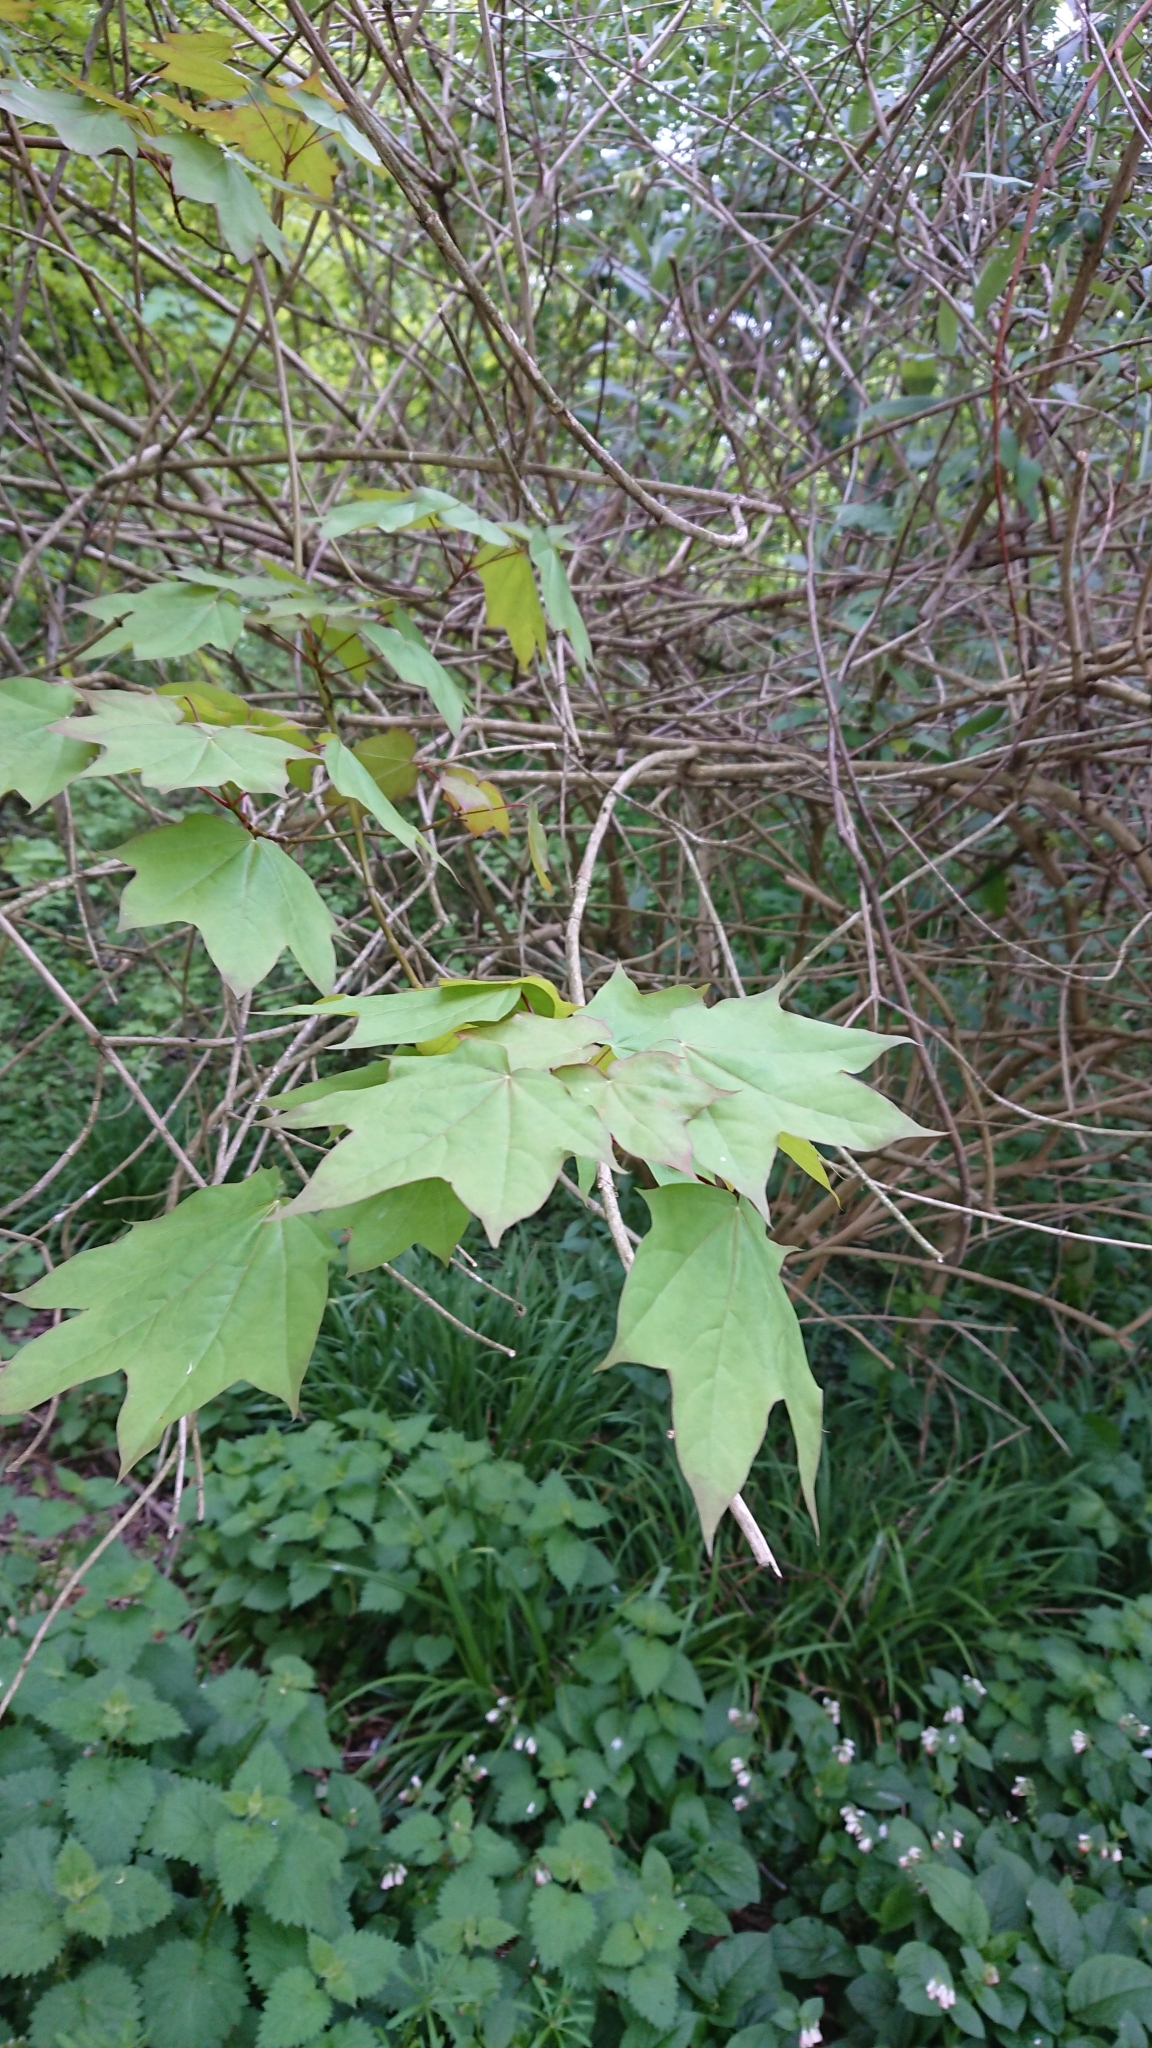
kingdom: Plantae
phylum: Tracheophyta
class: Magnoliopsida
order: Sapindales
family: Sapindaceae
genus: Acer
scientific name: Acer cappadocicum
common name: Cappadocian maple
